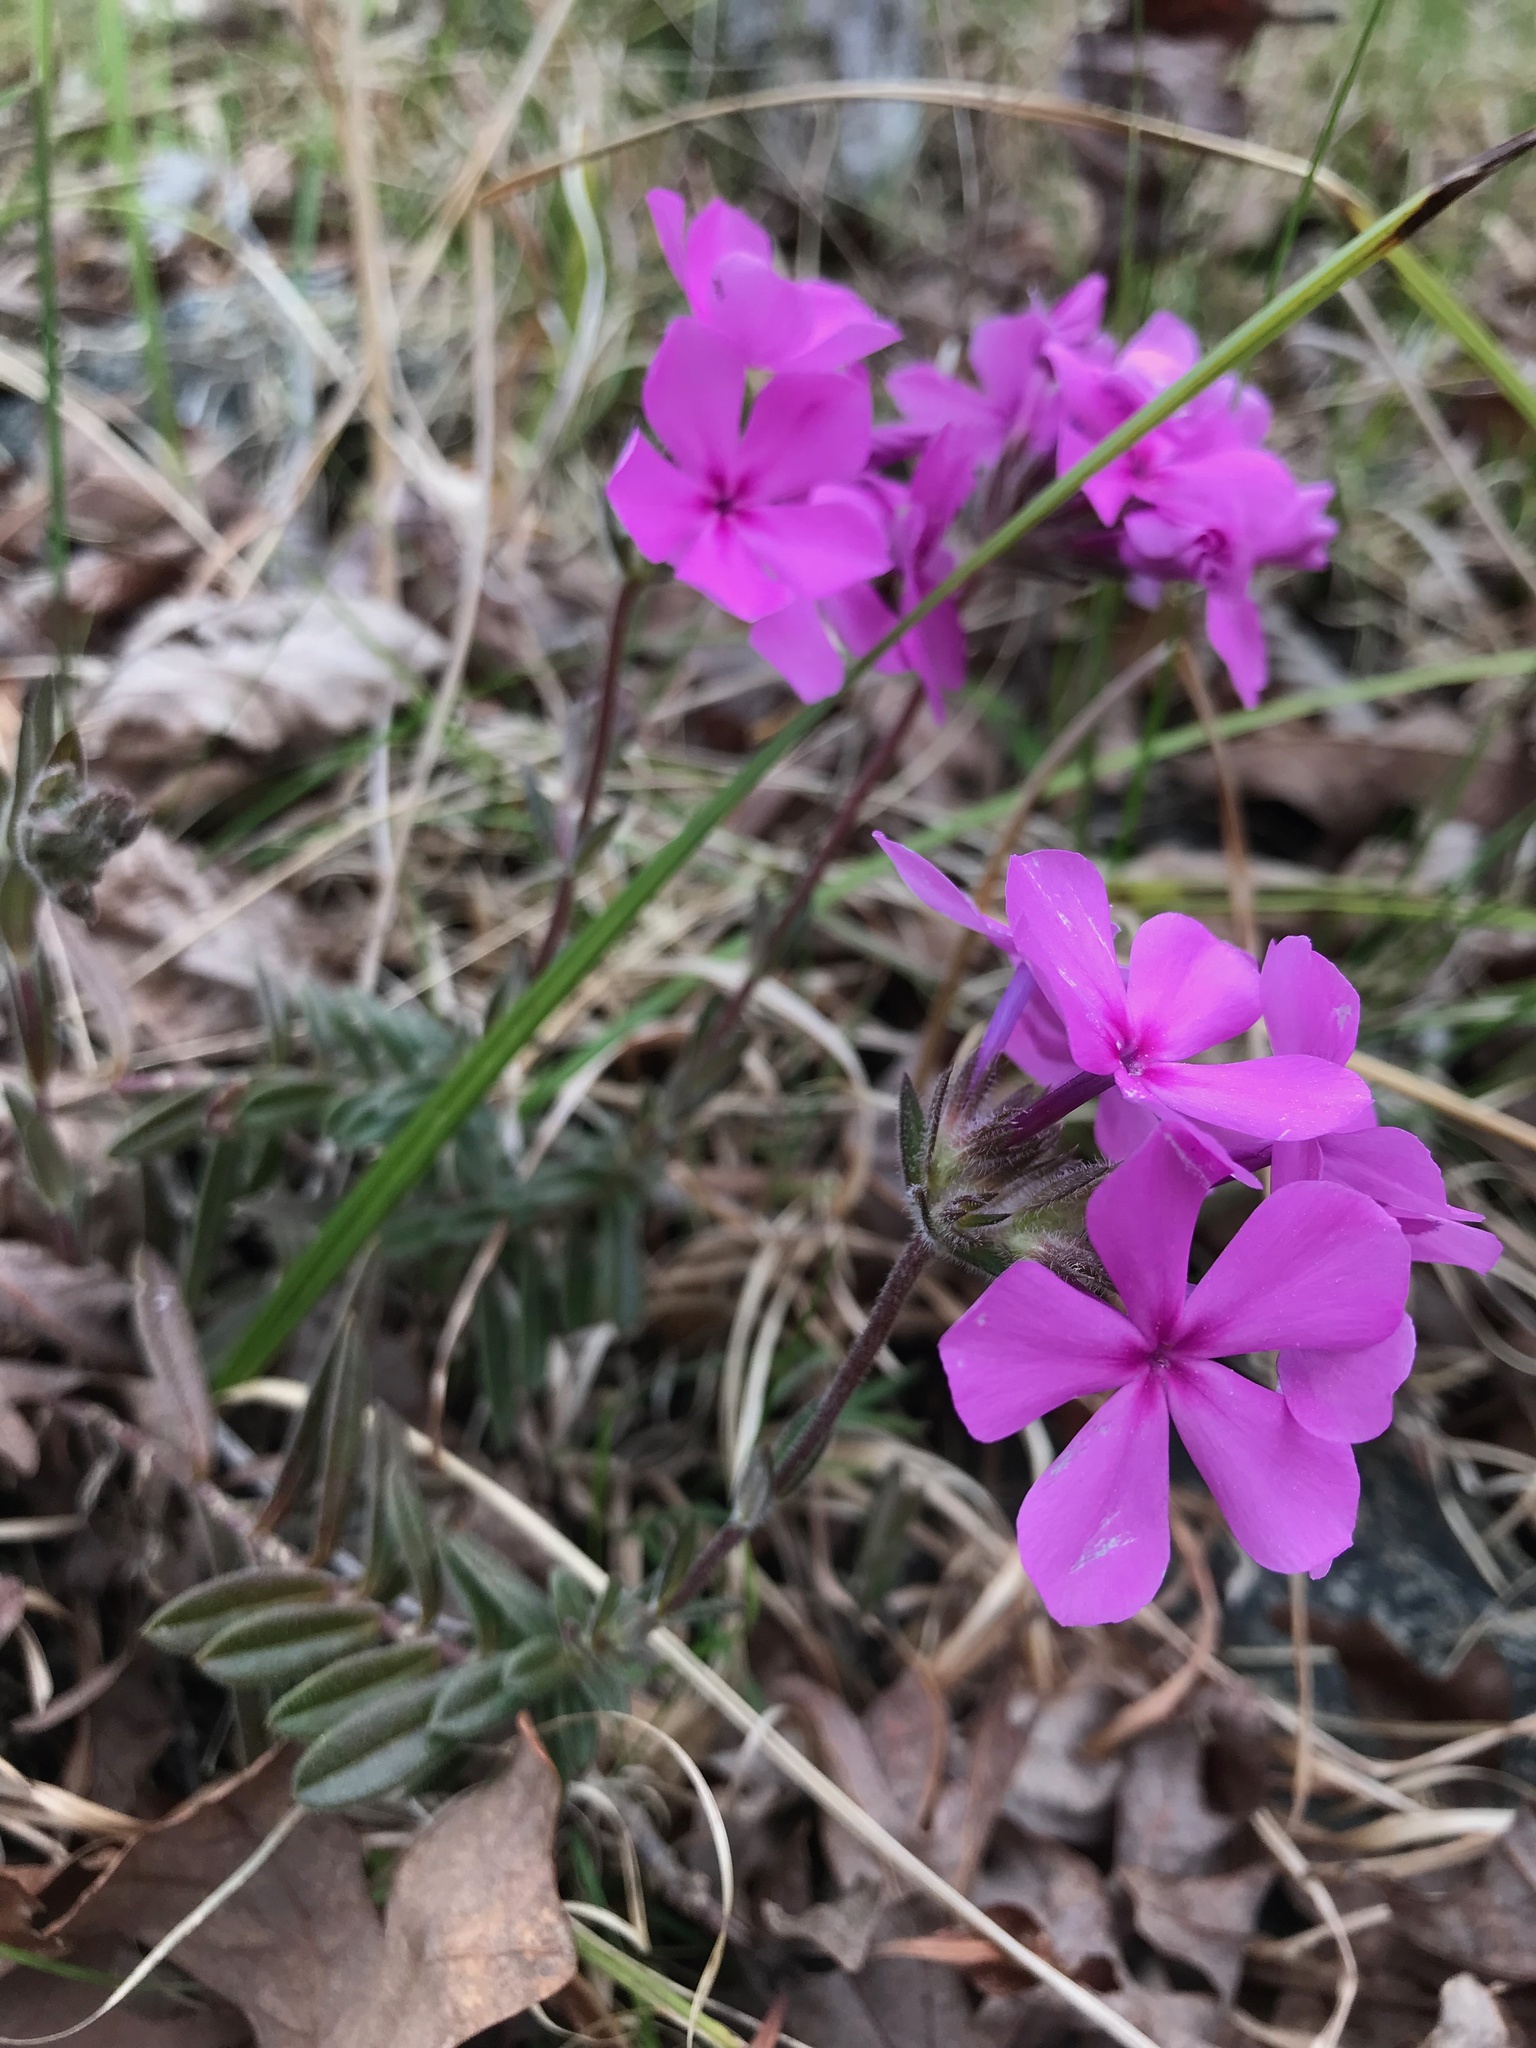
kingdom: Plantae
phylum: Tracheophyta
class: Magnoliopsida
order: Ericales
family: Polemoniaceae
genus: Phlox
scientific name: Phlox amoena
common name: Hairy phlox
